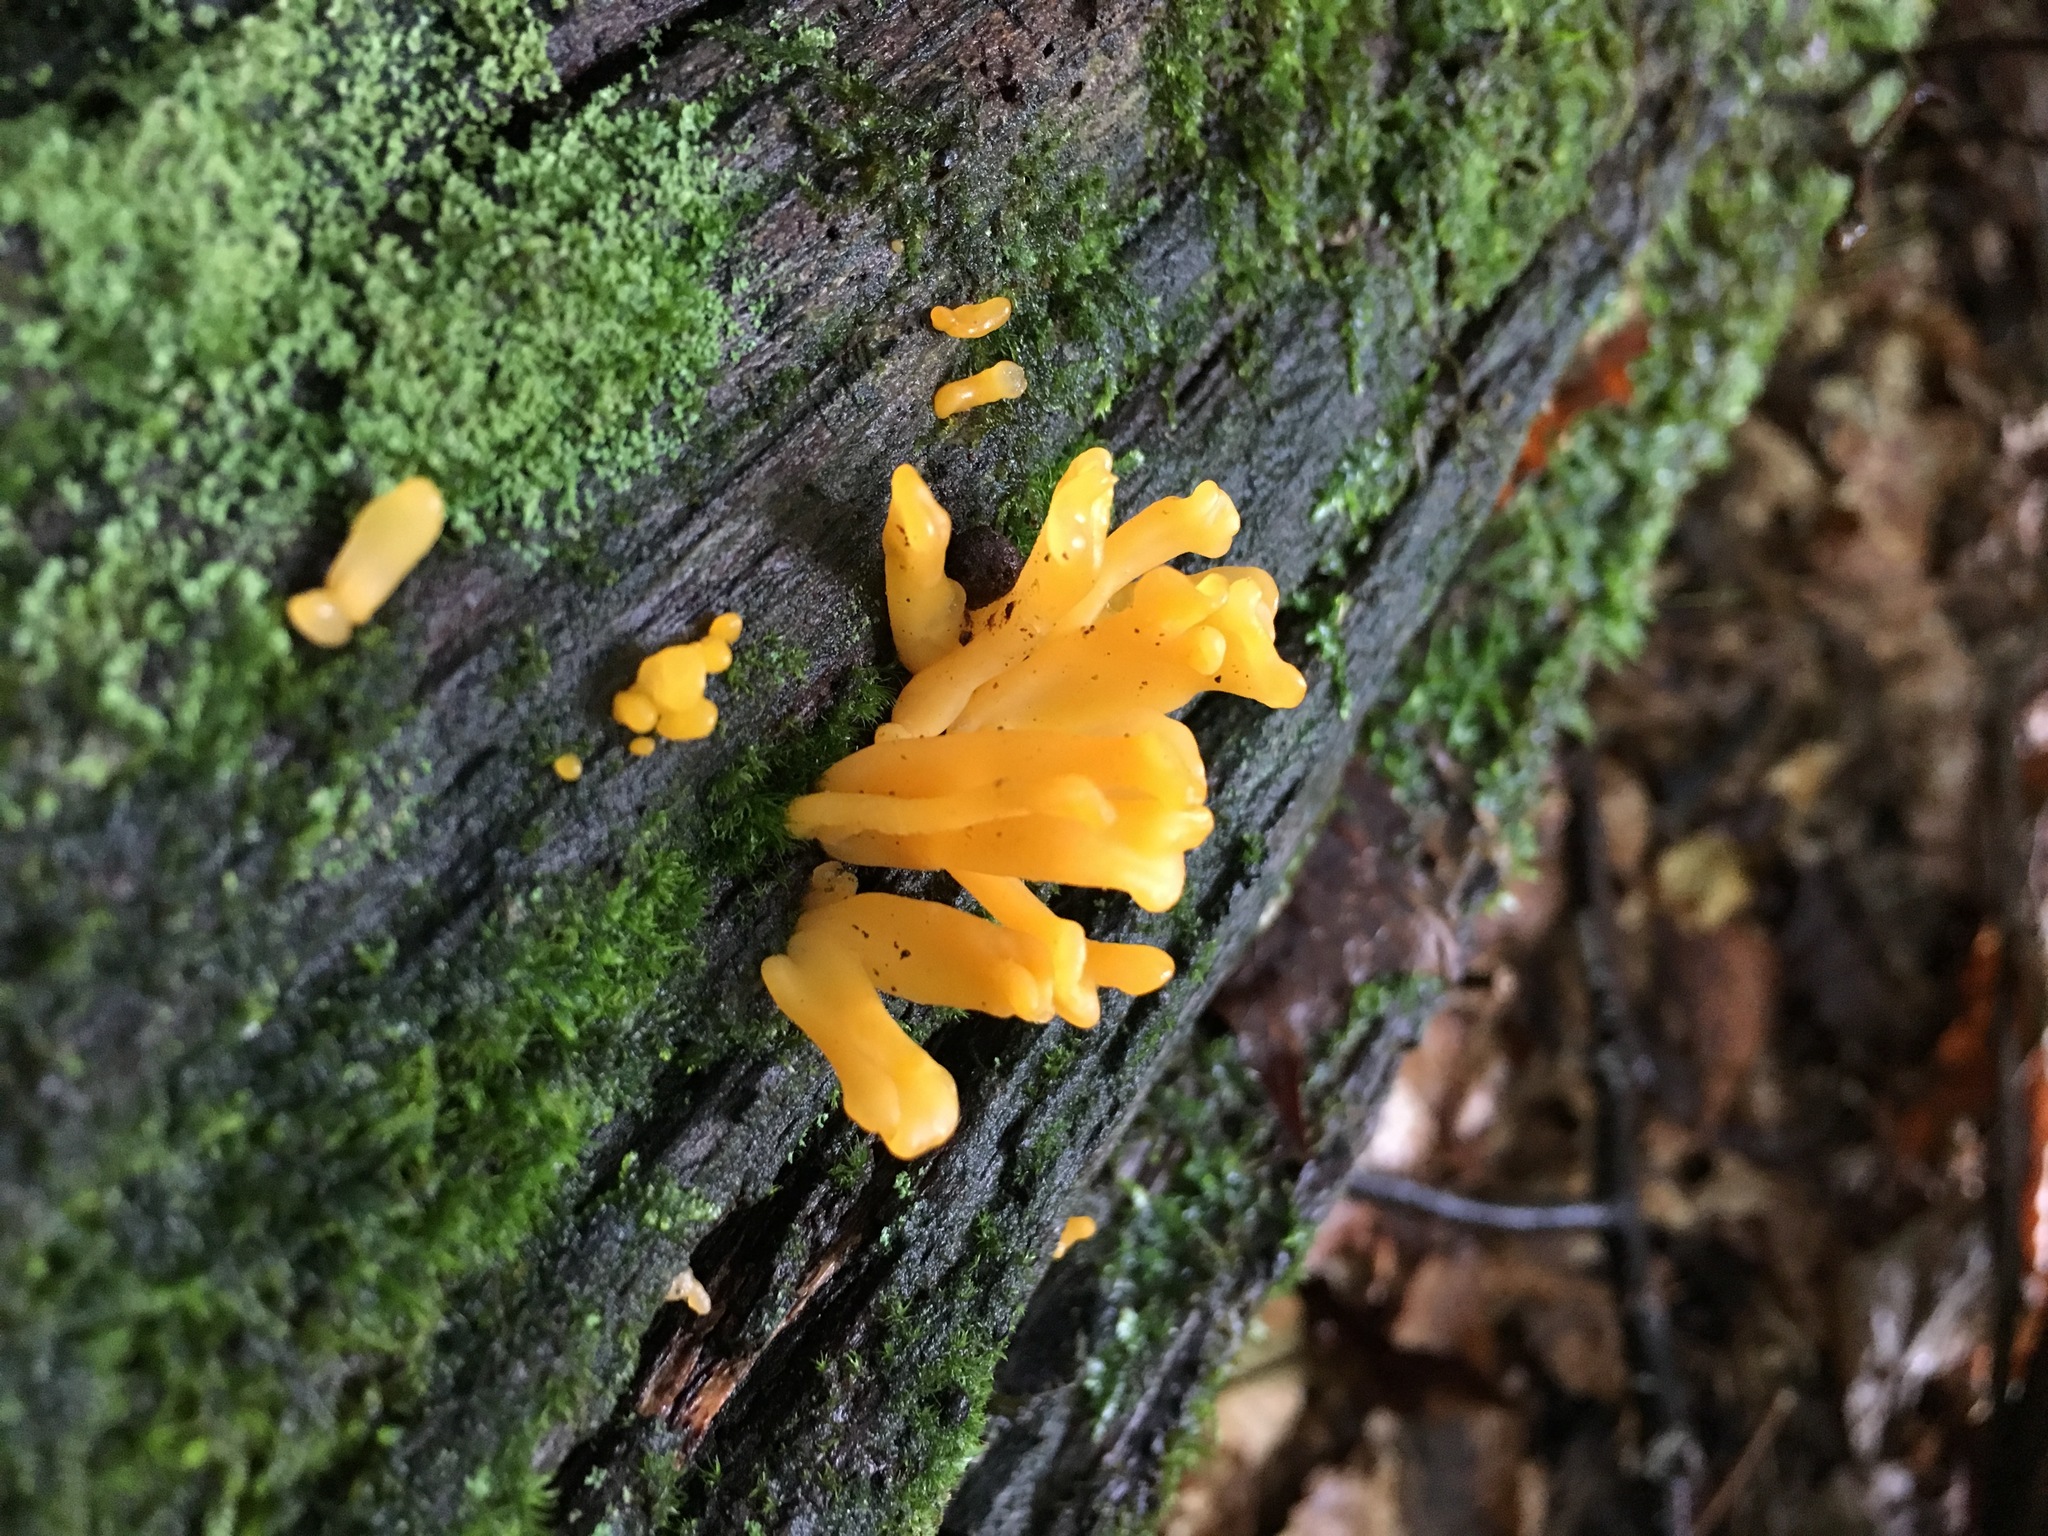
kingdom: Fungi
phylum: Basidiomycota
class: Dacrymycetes
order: Dacrymycetales
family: Dacrymycetaceae
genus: Dacrymyces
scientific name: Dacrymyces spathularius
